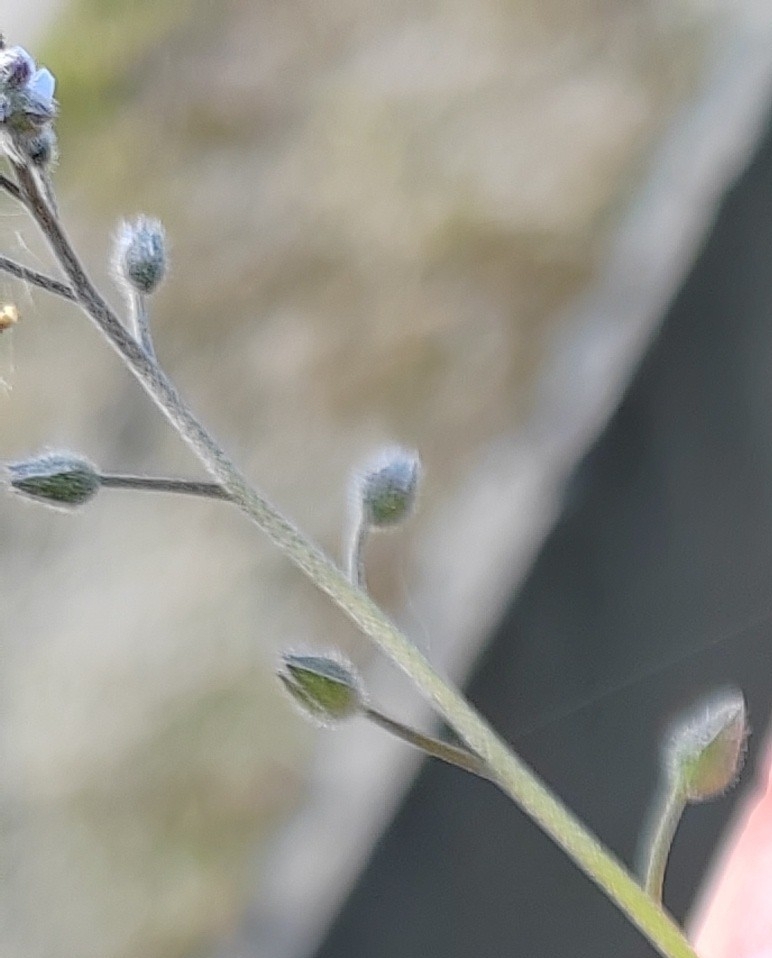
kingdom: Plantae
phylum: Tracheophyta
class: Magnoliopsida
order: Boraginales
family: Boraginaceae
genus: Myosotis
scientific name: Myosotis arvensis
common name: Field forget-me-not
